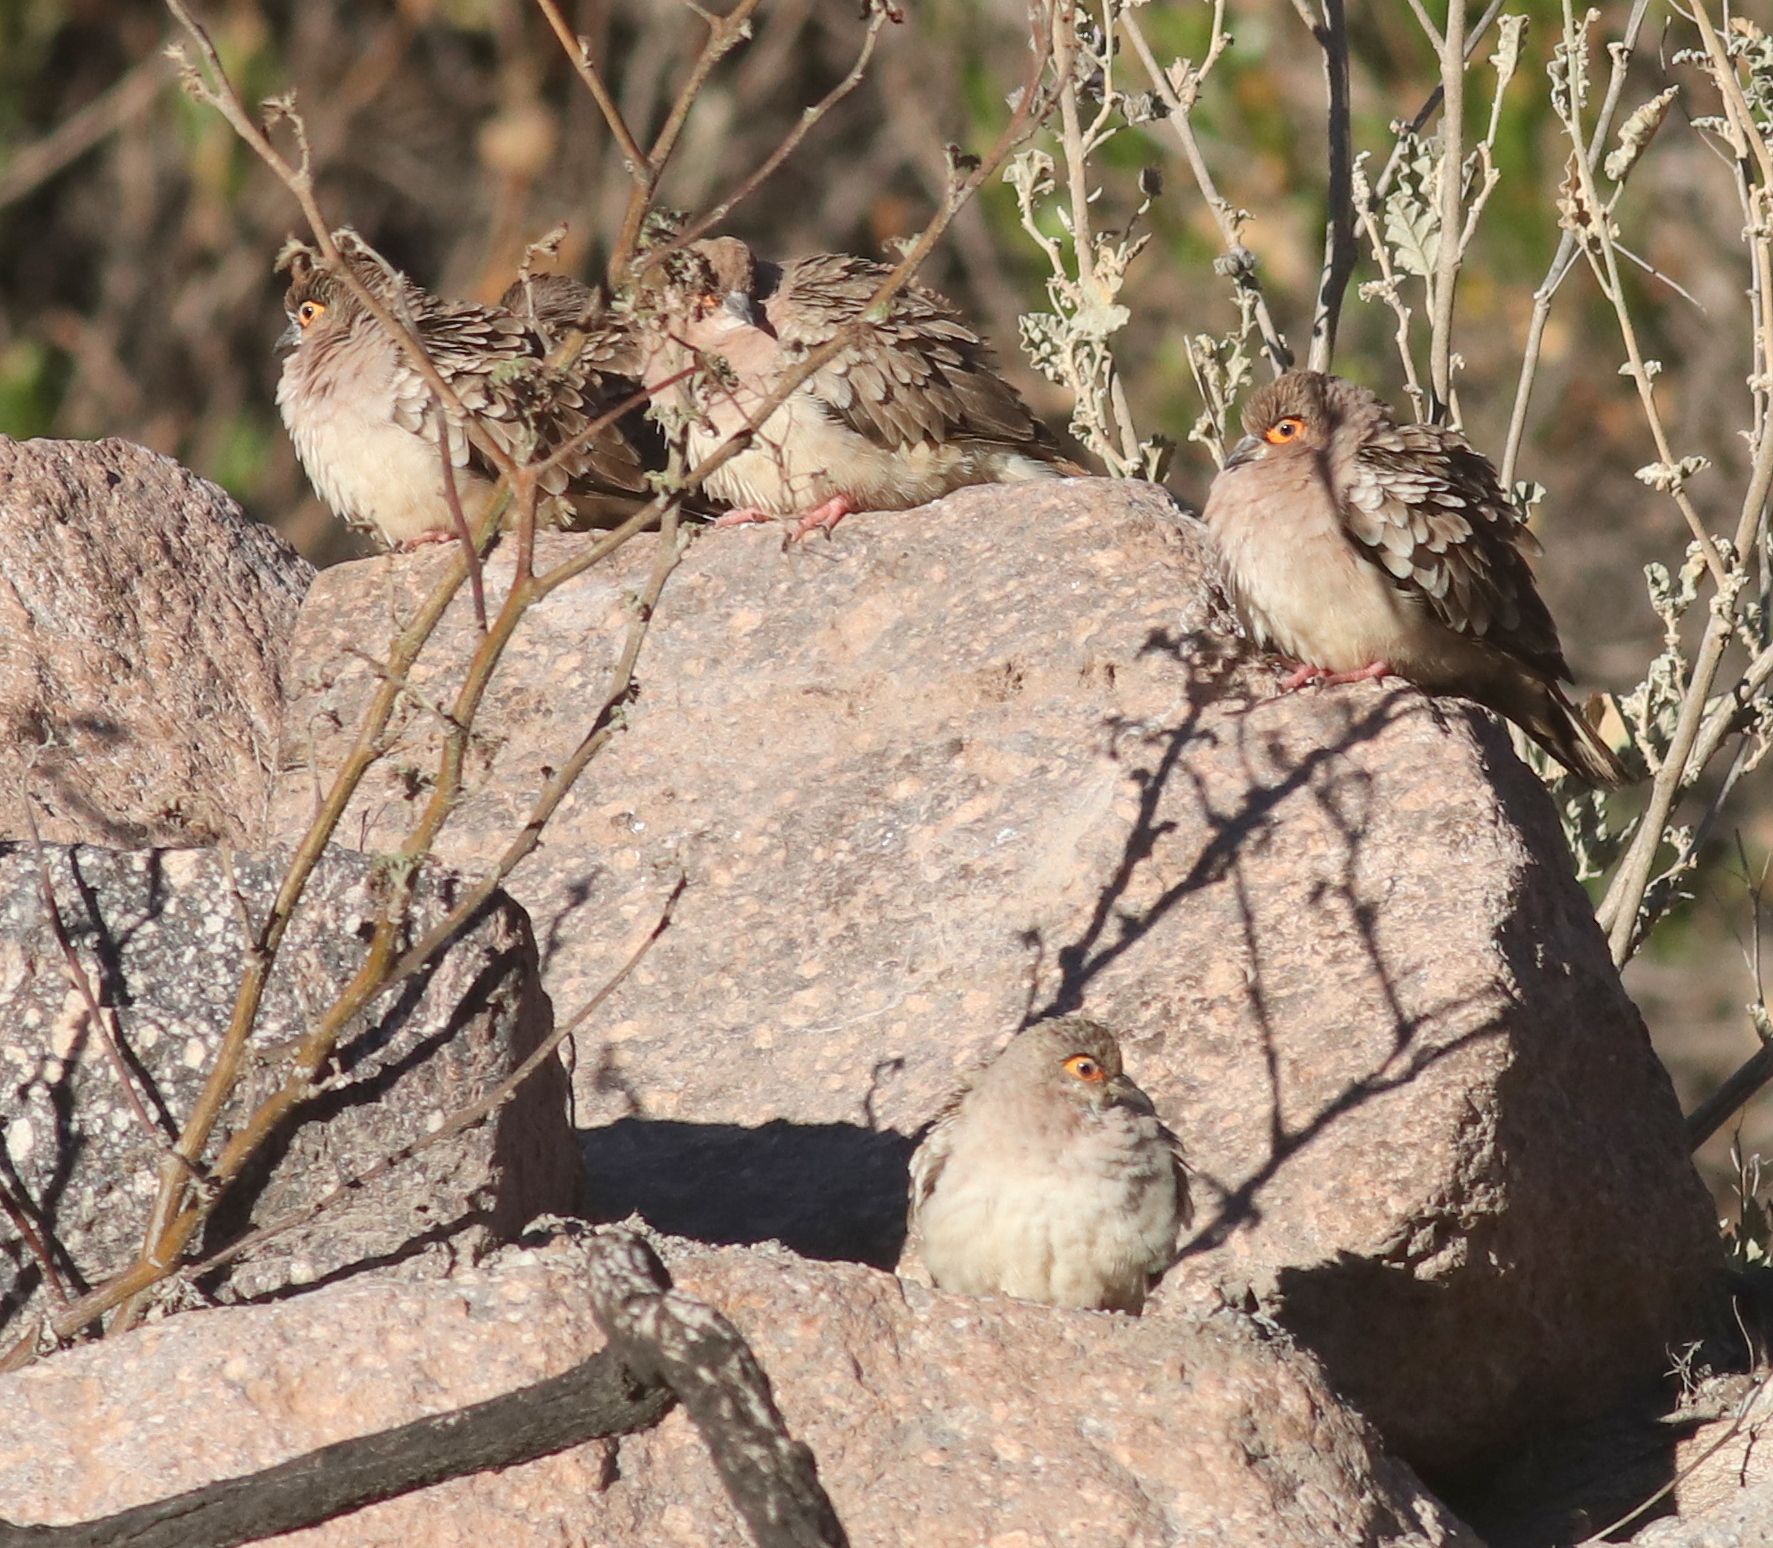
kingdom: Animalia
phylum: Chordata
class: Aves
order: Columbiformes
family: Columbidae
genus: Metriopelia
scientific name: Metriopelia ceciliae
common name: Bare-faced ground dove
